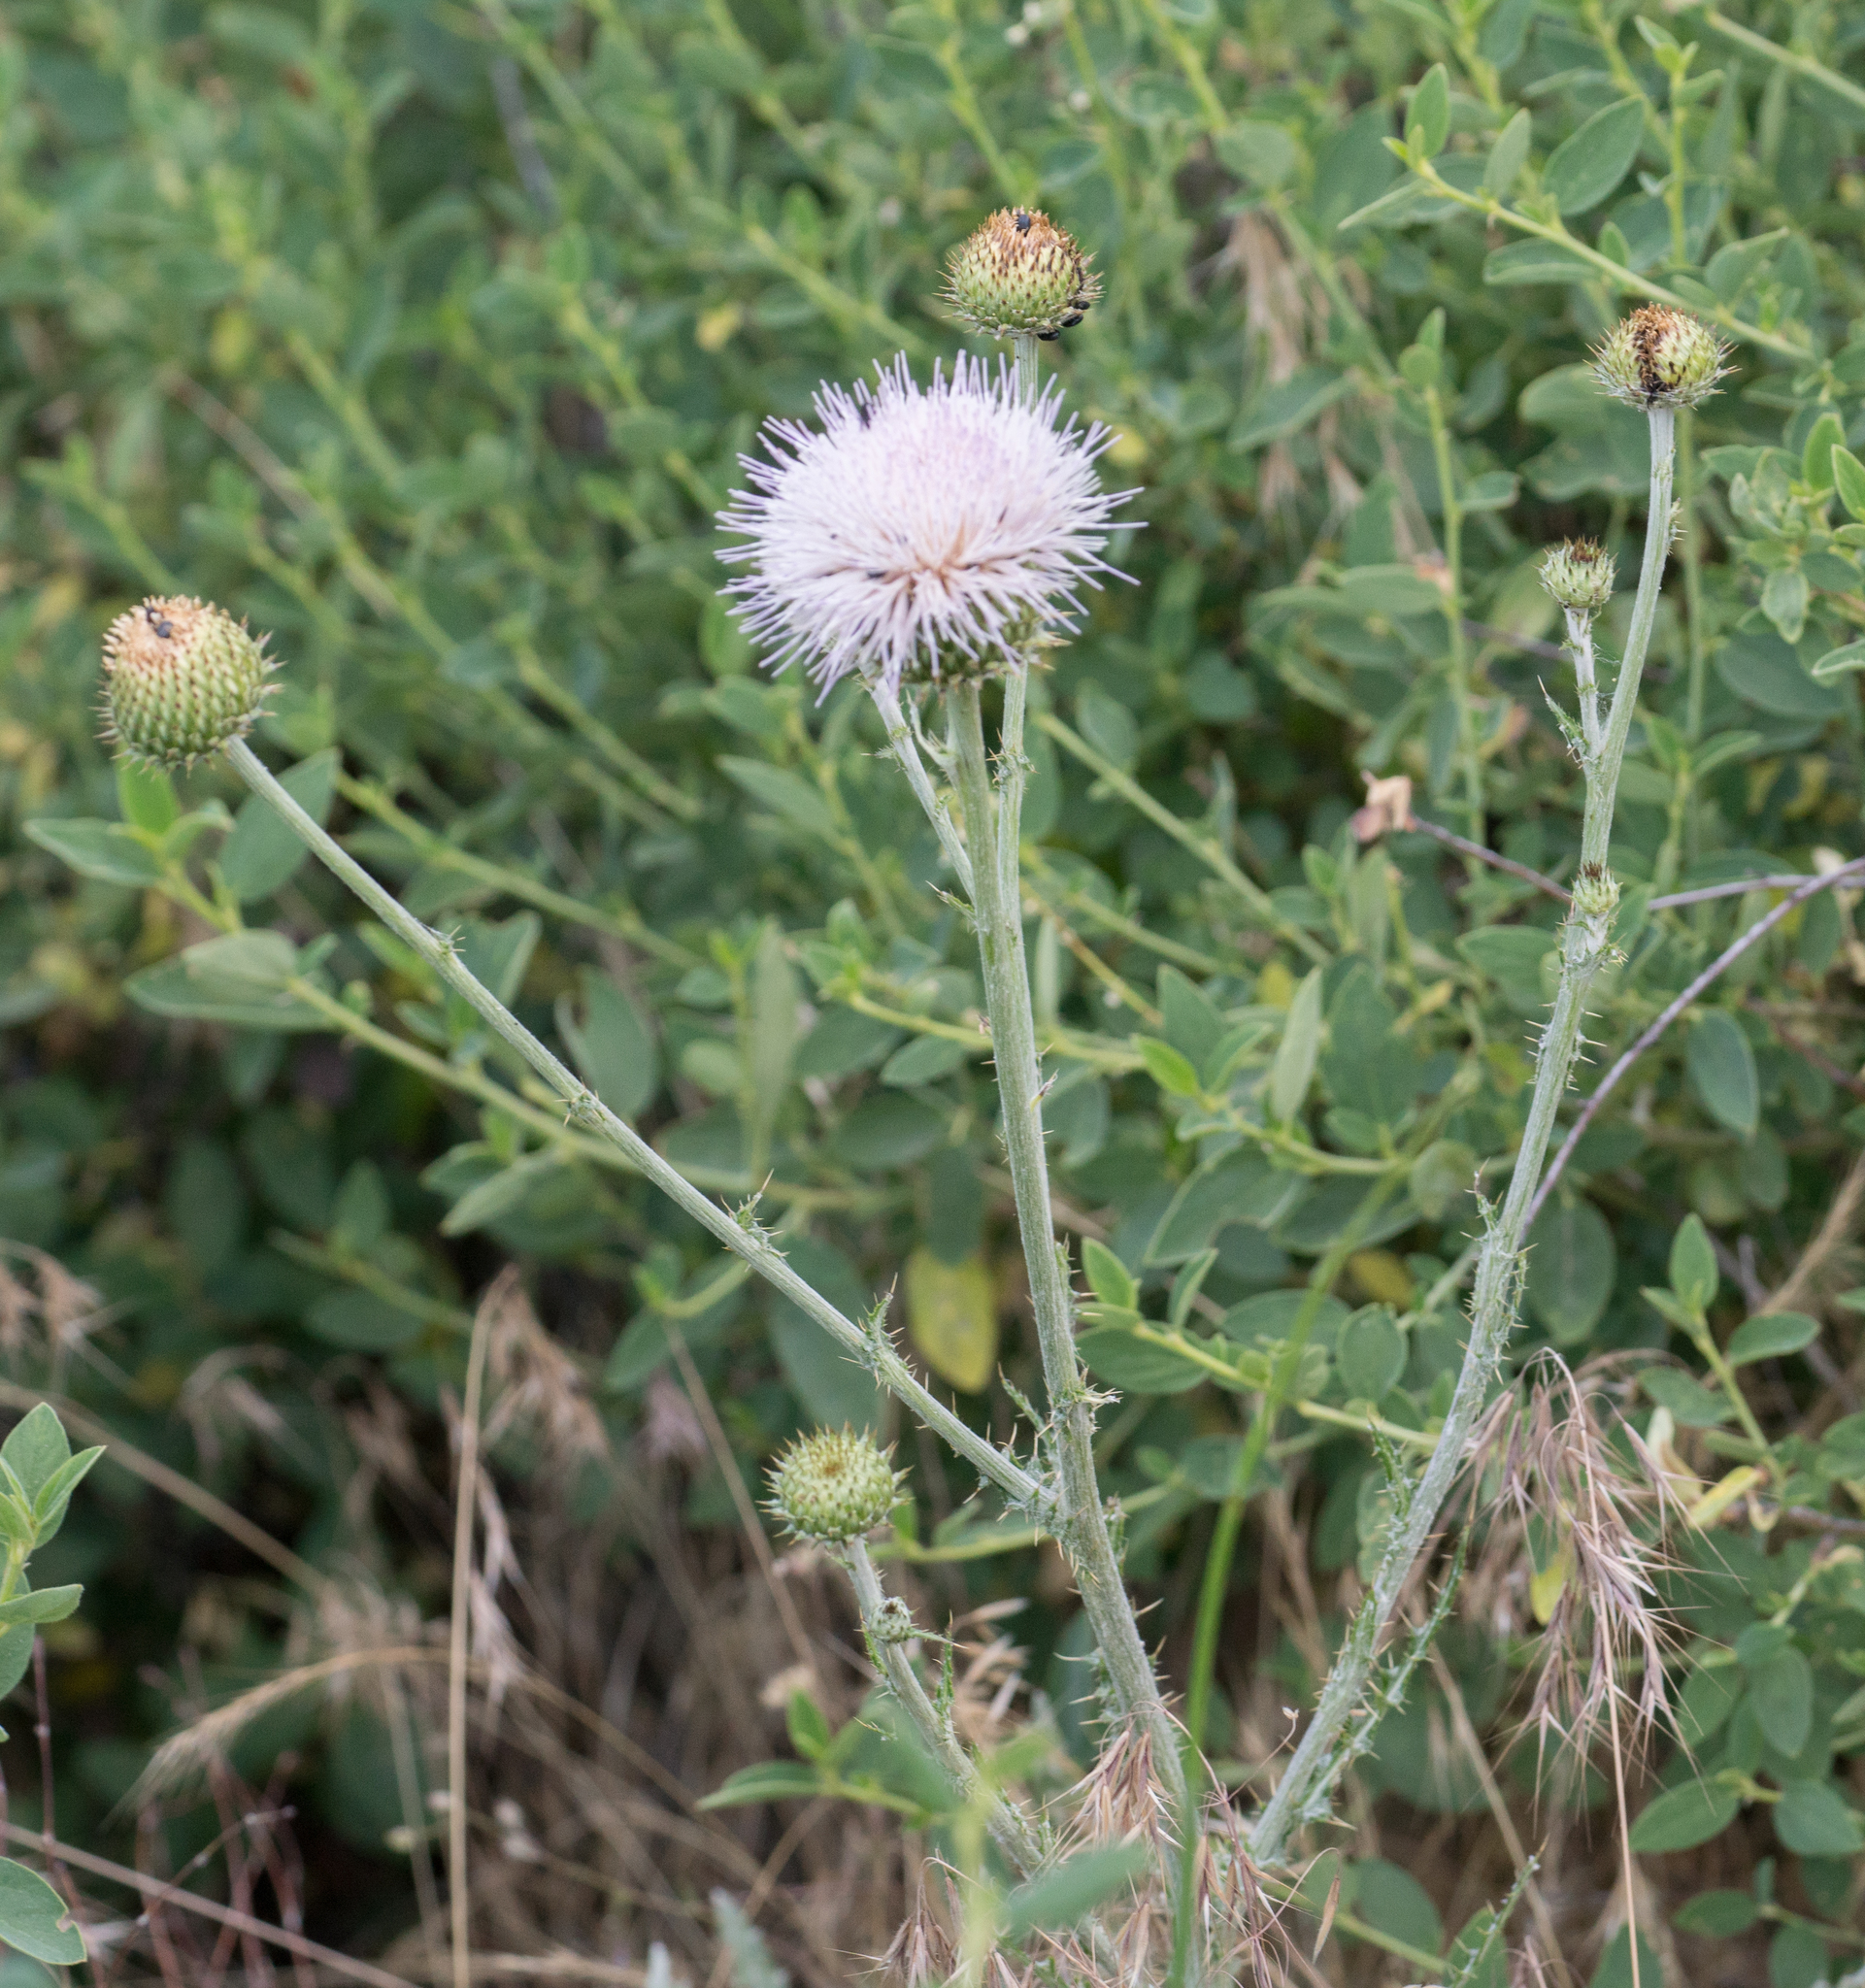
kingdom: Plantae
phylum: Tracheophyta
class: Magnoliopsida
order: Asterales
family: Asteraceae
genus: Cirsium
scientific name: Cirsium mohavense
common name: Mojave thistle
